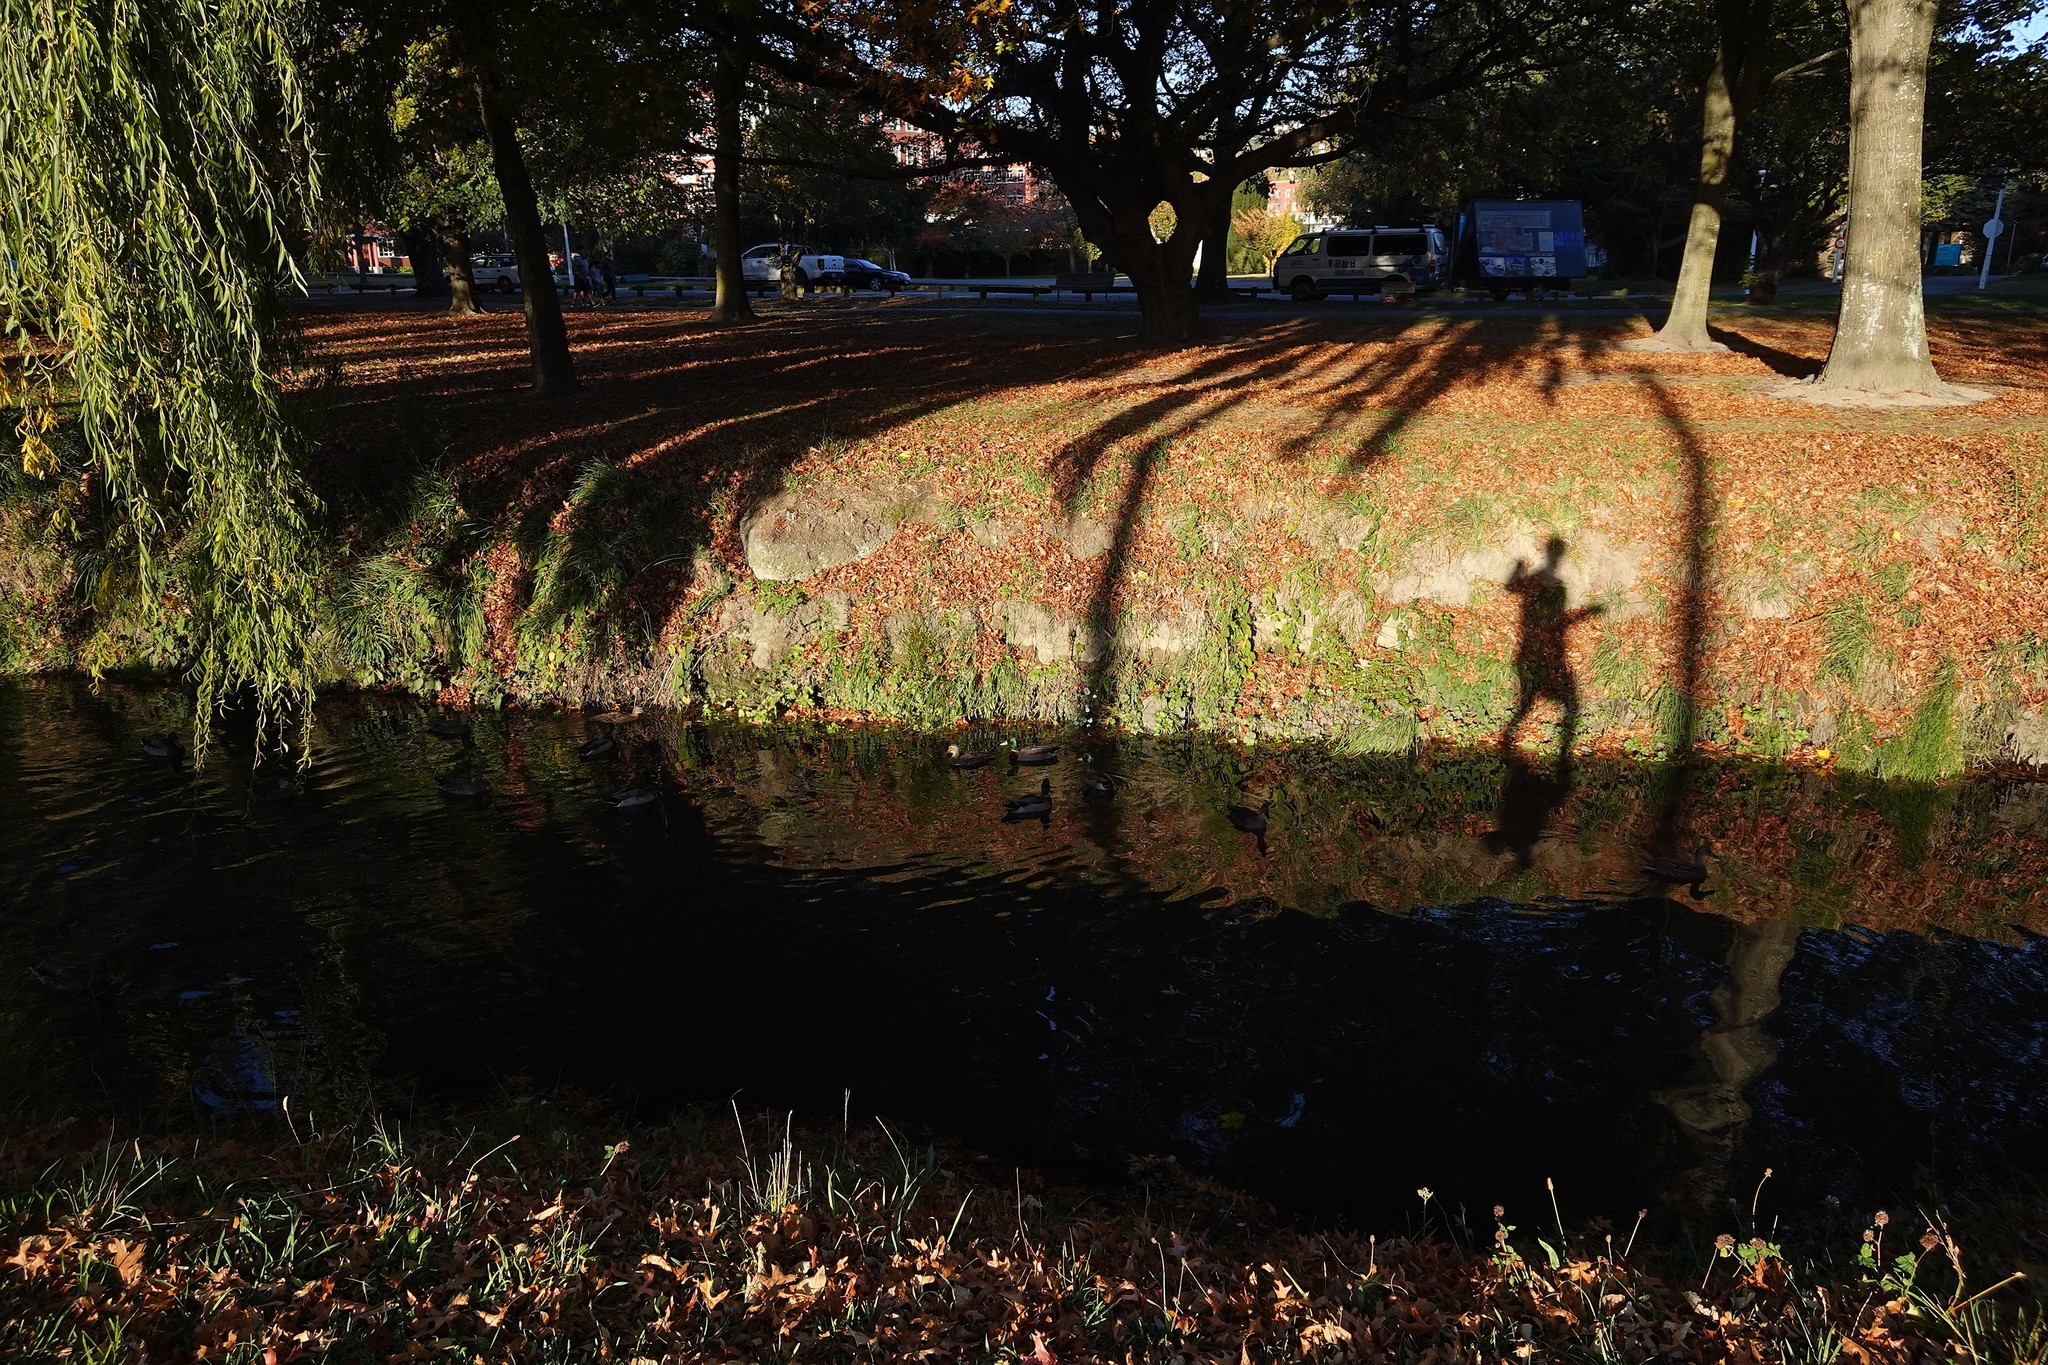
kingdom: Animalia
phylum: Chordata
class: Aves
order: Anseriformes
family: Anatidae
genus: Anas
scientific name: Anas platyrhynchos
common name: Mallard
